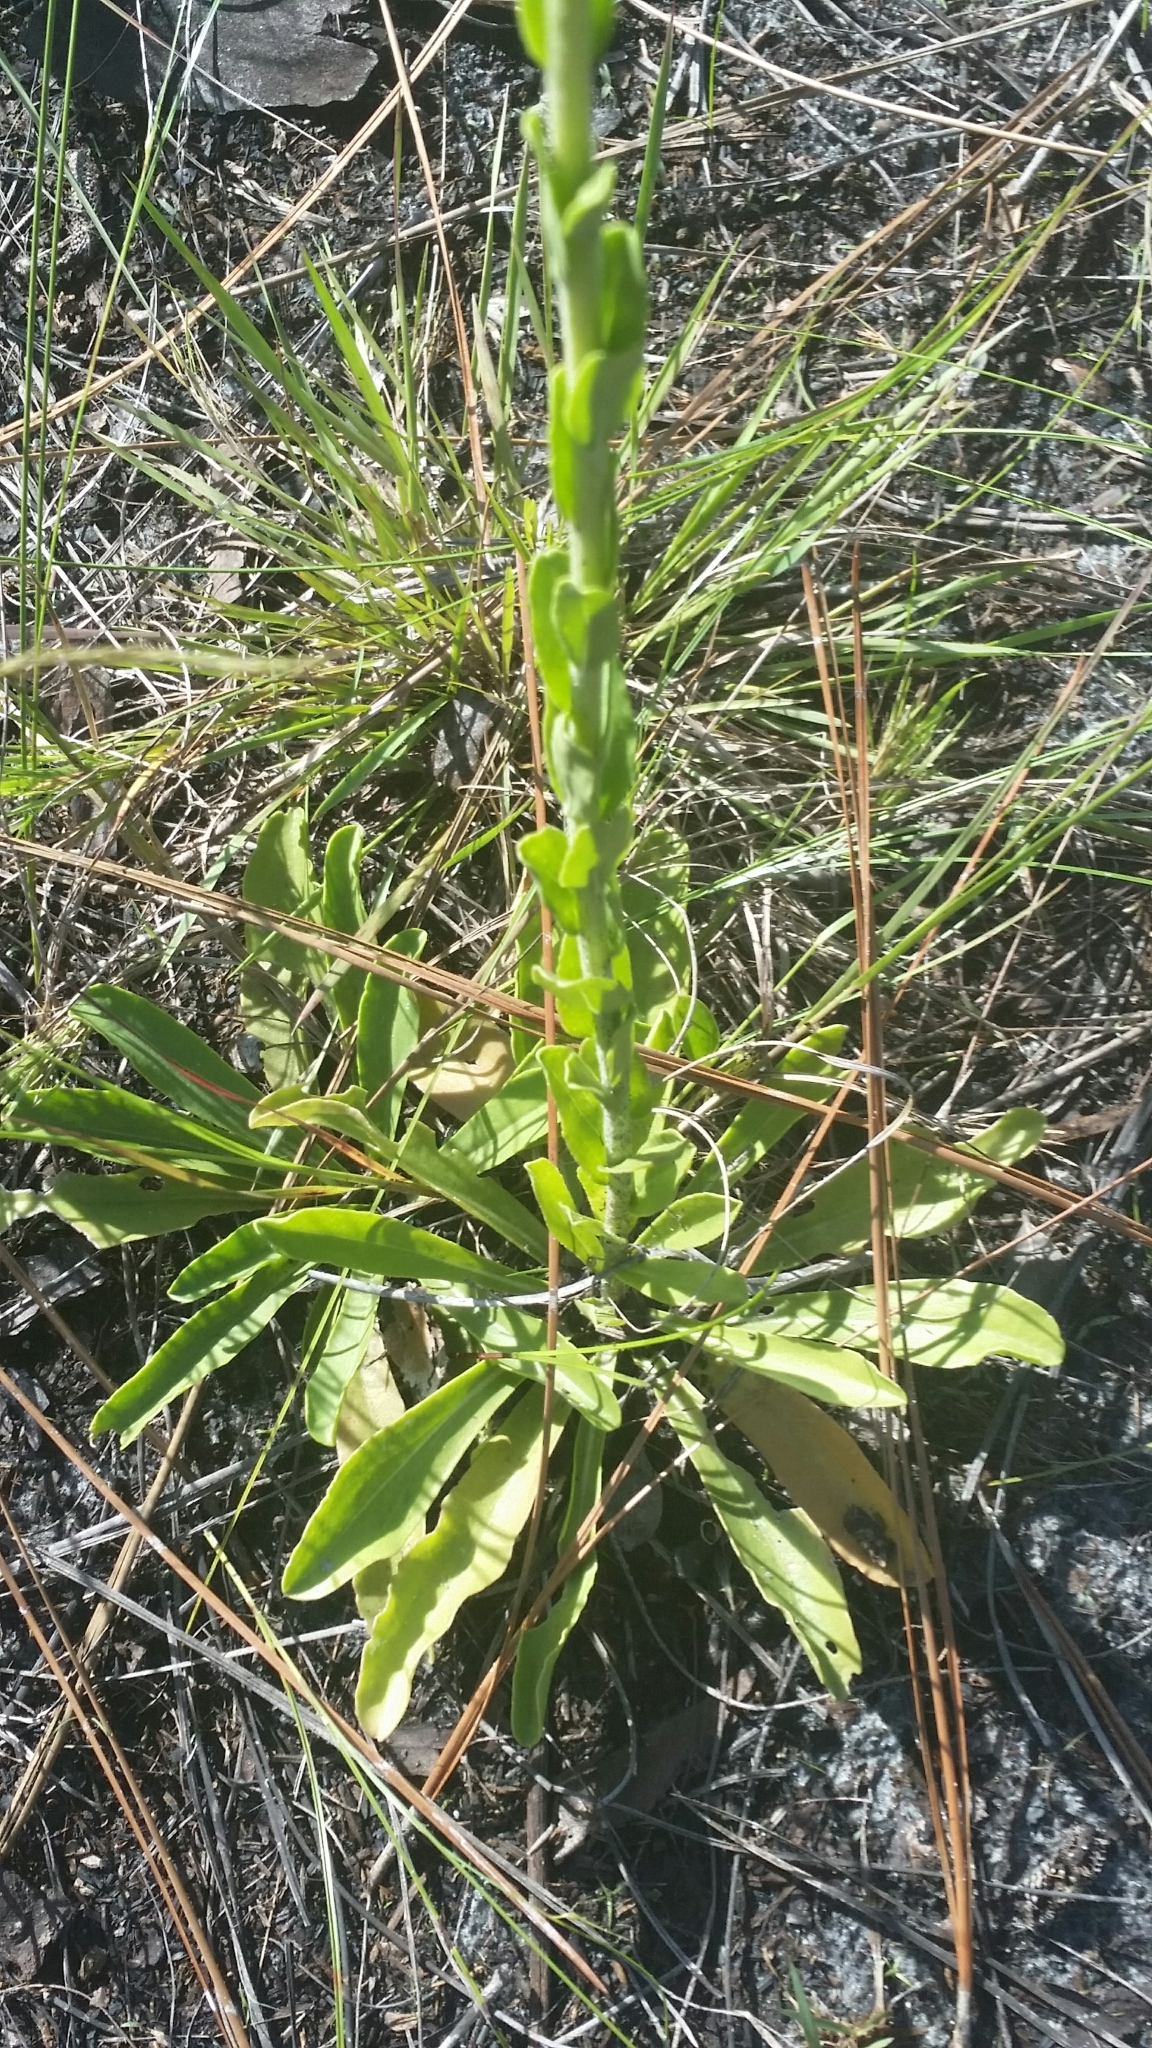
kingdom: Plantae
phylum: Tracheophyta
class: Magnoliopsida
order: Asterales
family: Asteraceae
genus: Carphephorus
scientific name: Carphephorus corymbosus
